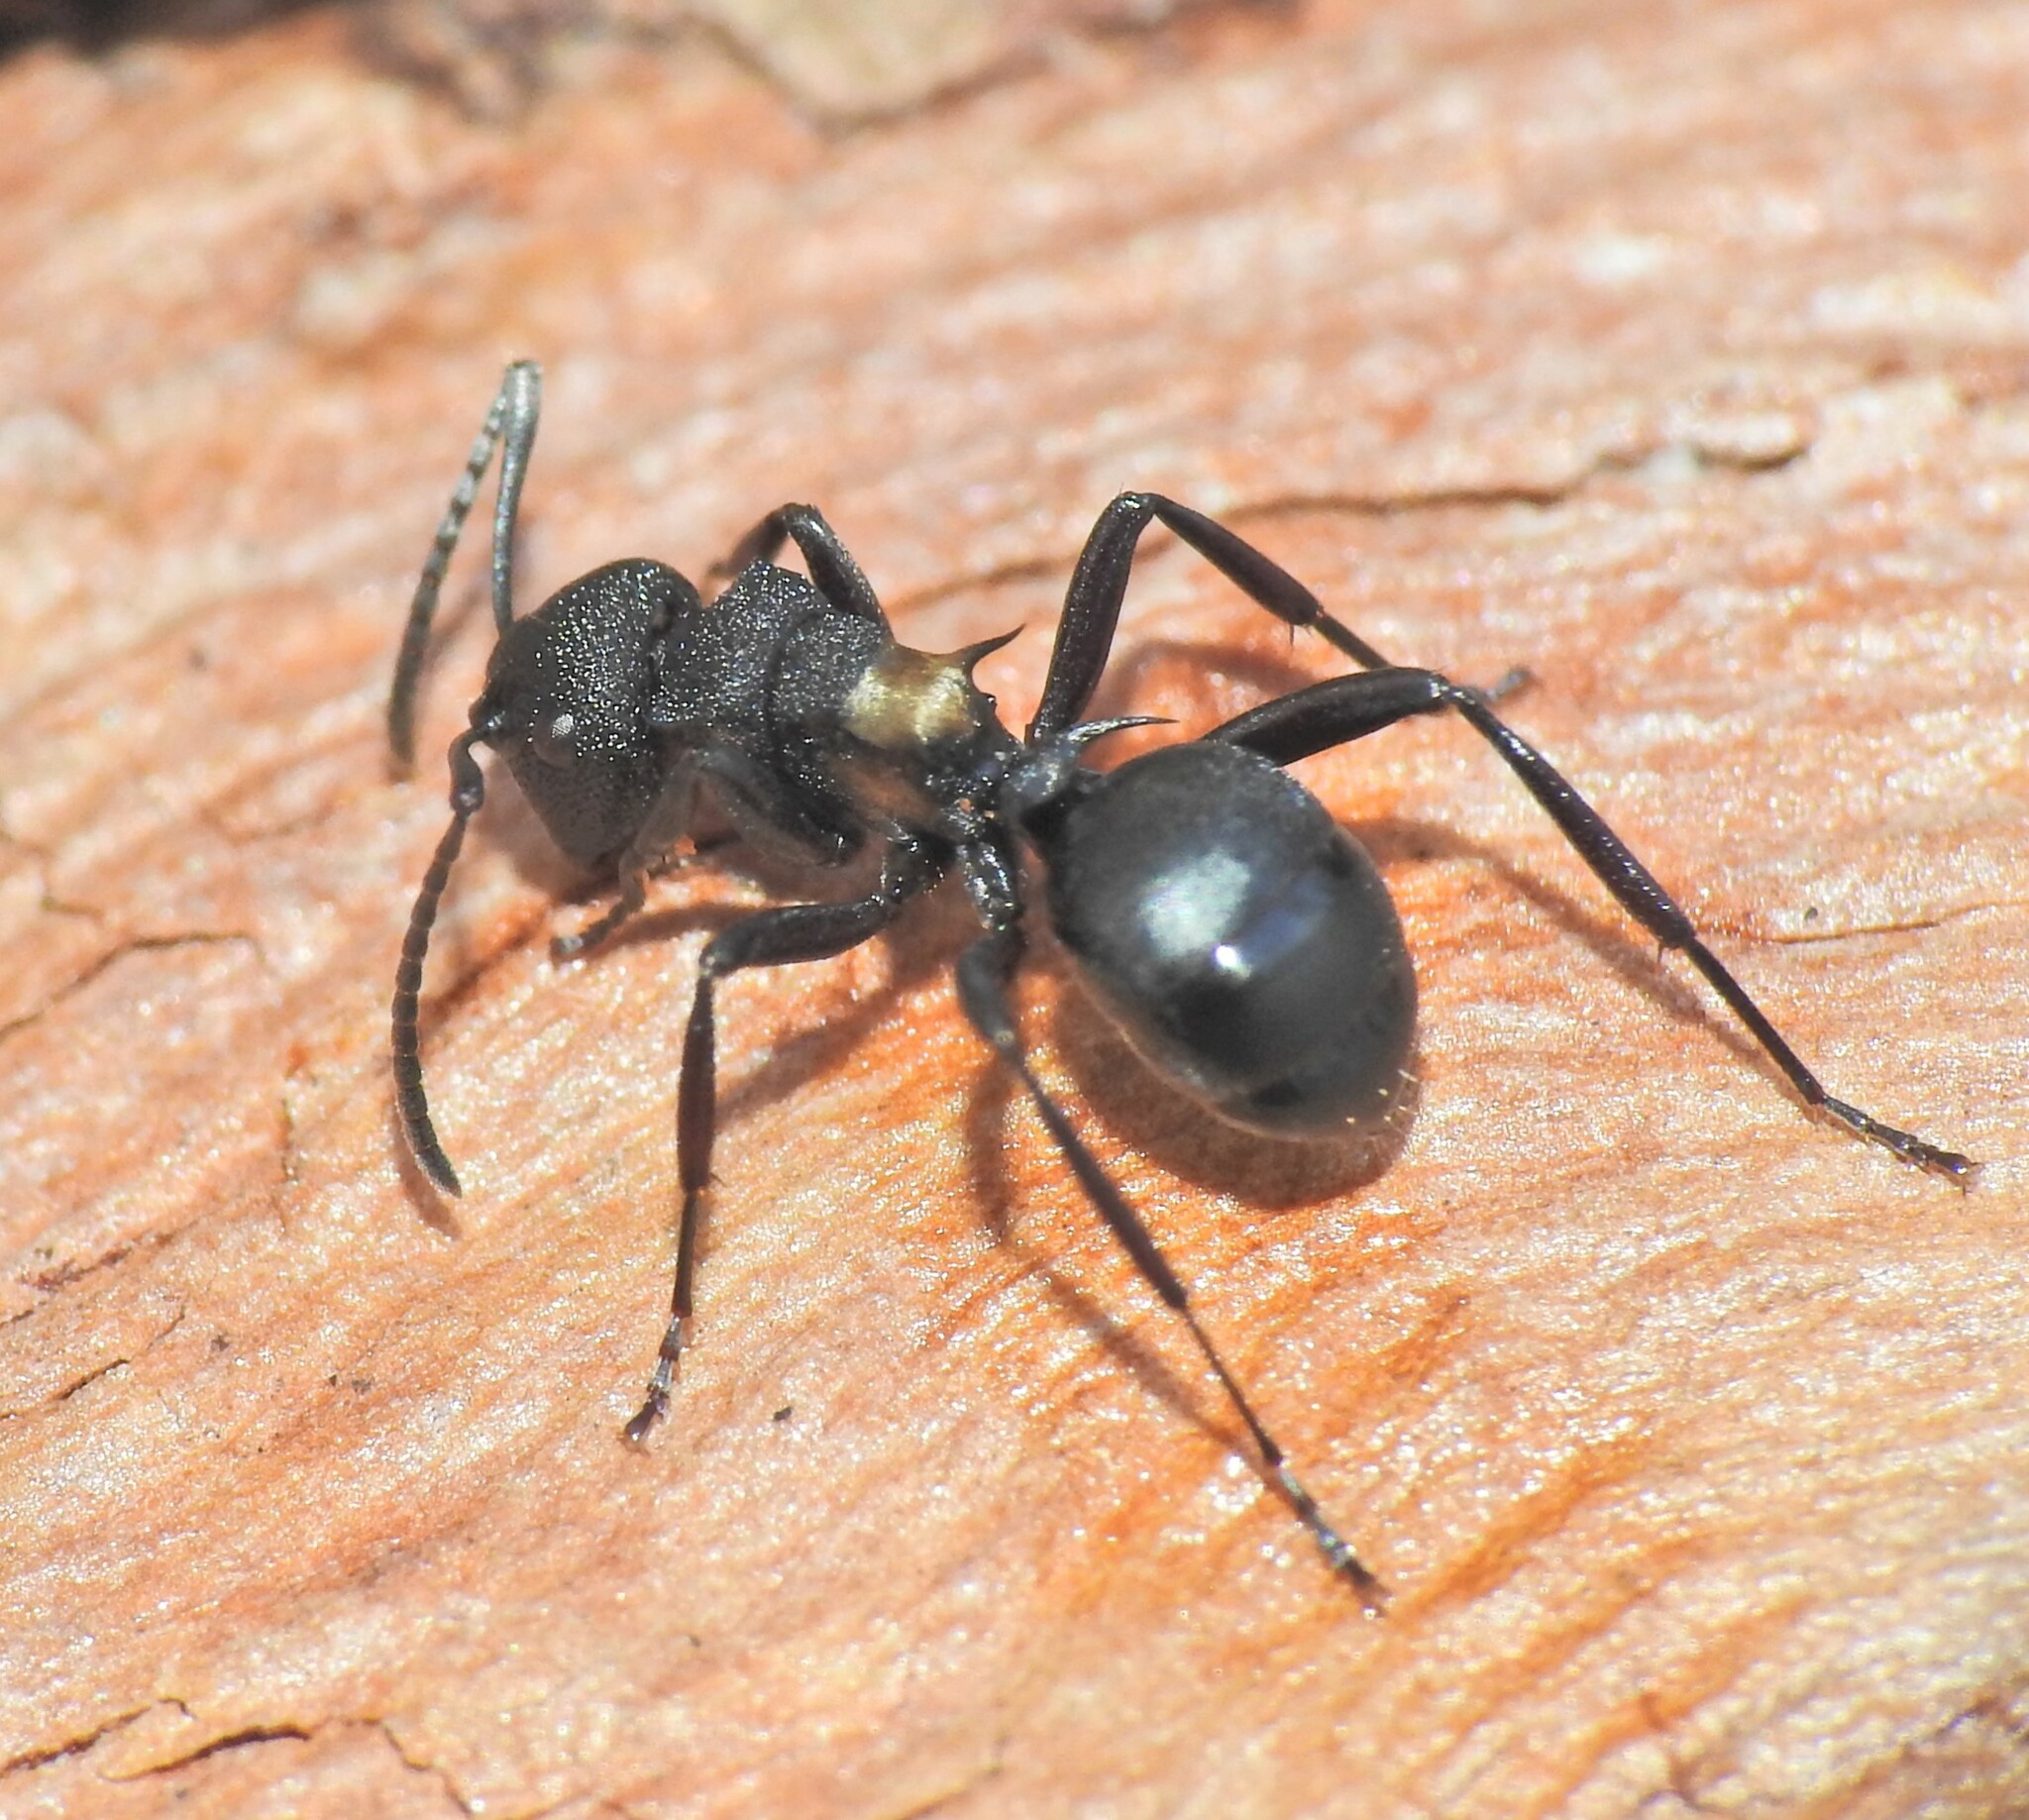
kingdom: Animalia
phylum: Arthropoda
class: Insecta
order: Hymenoptera
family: Formicidae
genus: Polyrhachis
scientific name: Polyrhachis machaon
